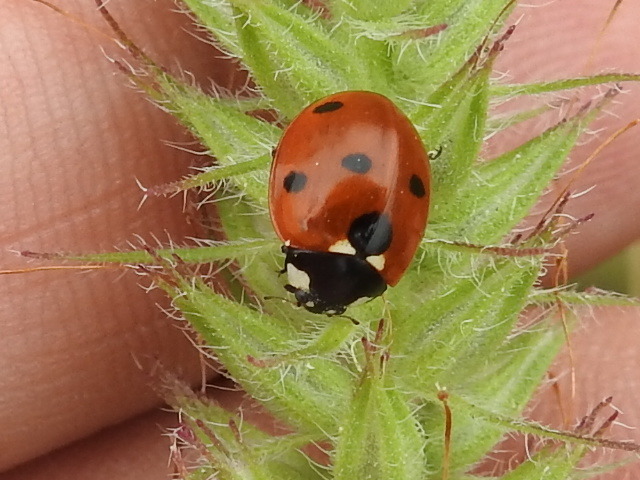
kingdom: Animalia
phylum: Arthropoda
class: Insecta
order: Coleoptera
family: Coccinellidae
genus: Coccinella
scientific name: Coccinella septempunctata
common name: Sevenspotted lady beetle
